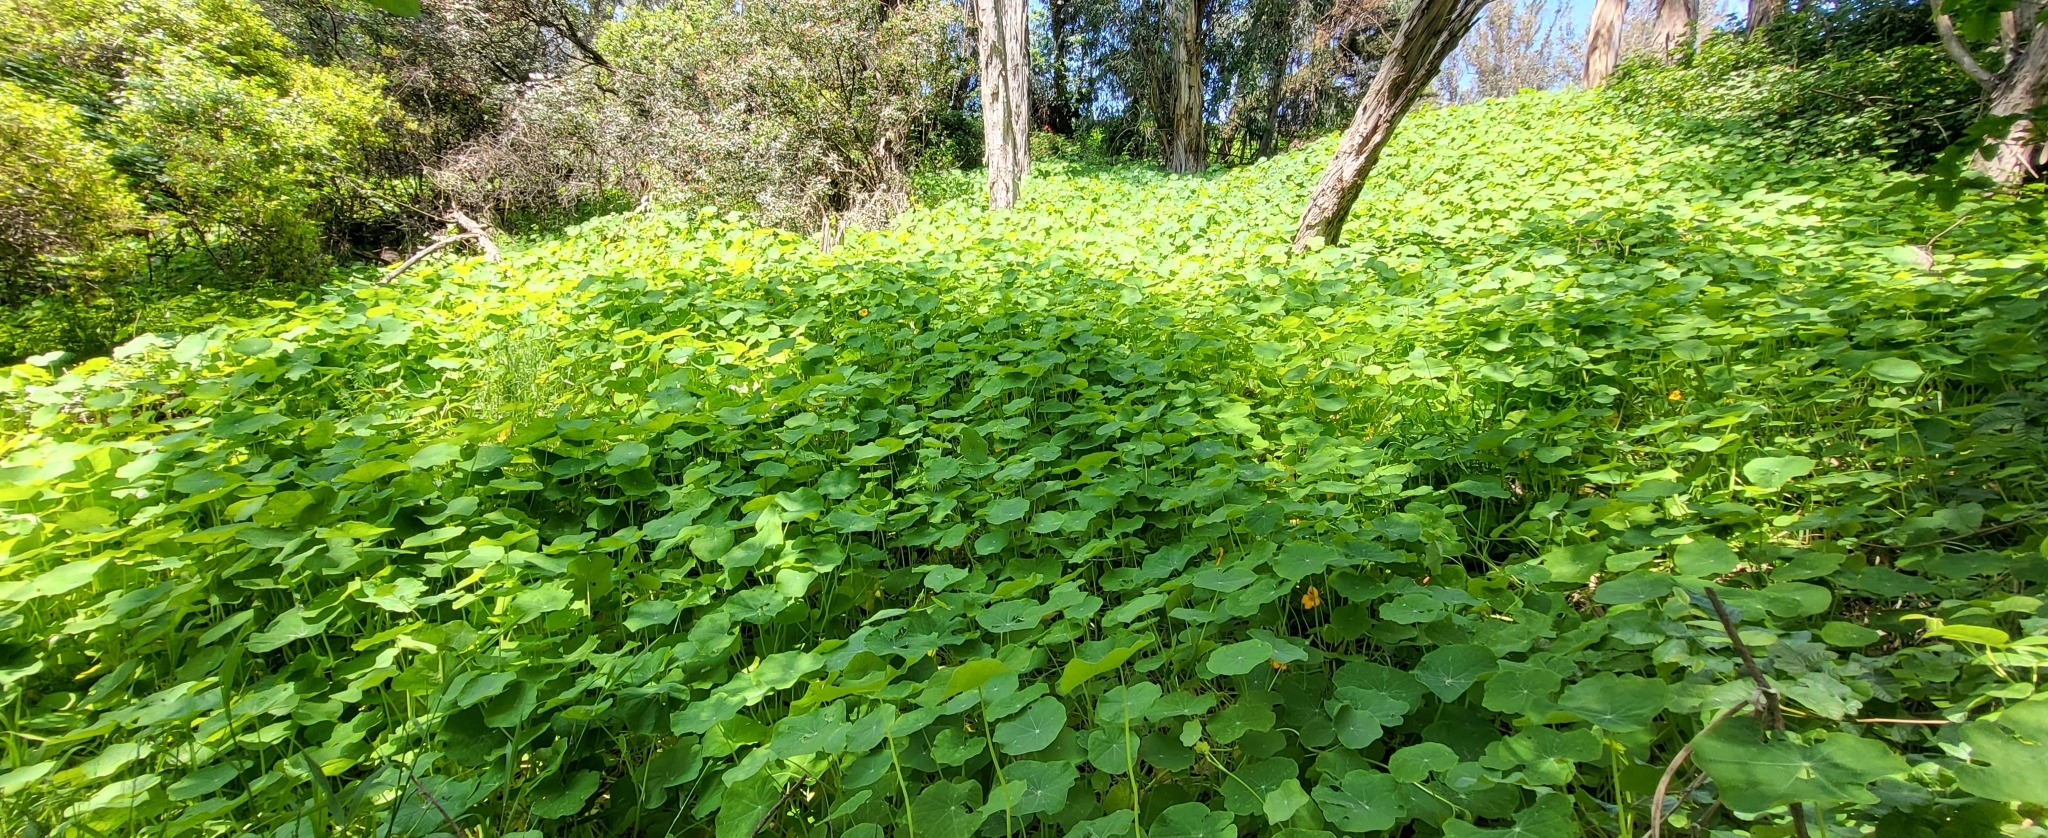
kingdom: Plantae
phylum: Tracheophyta
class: Magnoliopsida
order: Brassicales
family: Tropaeolaceae
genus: Tropaeolum
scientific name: Tropaeolum majus
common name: Nasturtium
